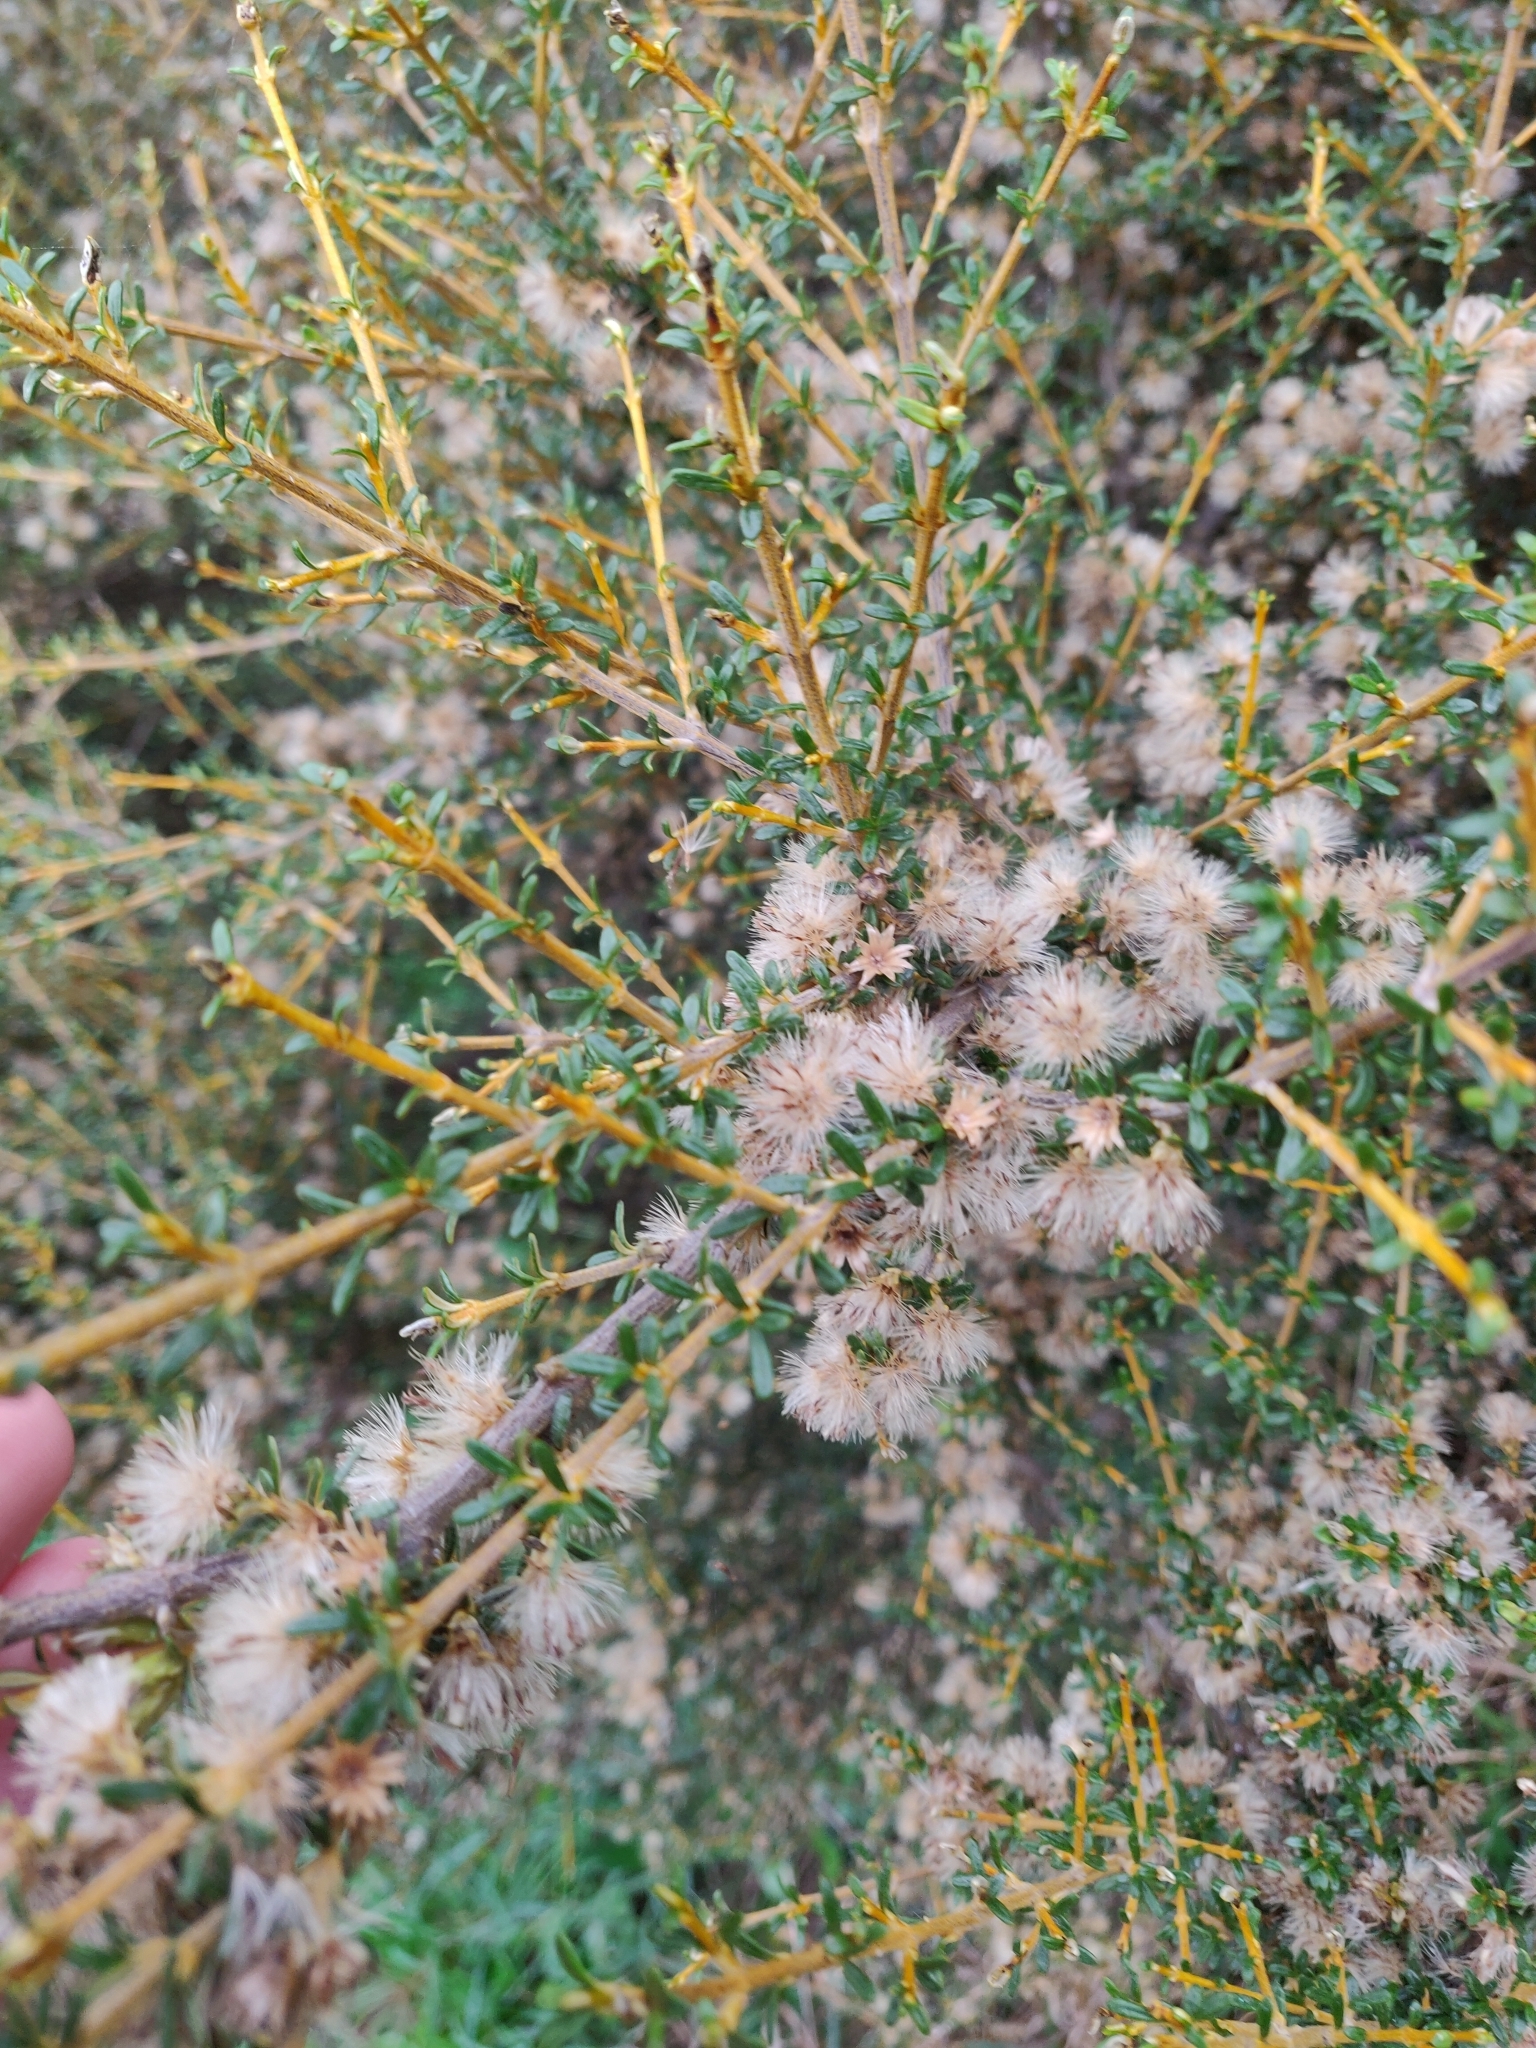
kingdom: Plantae
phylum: Tracheophyta
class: Magnoliopsida
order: Asterales
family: Asteraceae
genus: Olearia
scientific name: Olearia solandri
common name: Coastal daisybush
